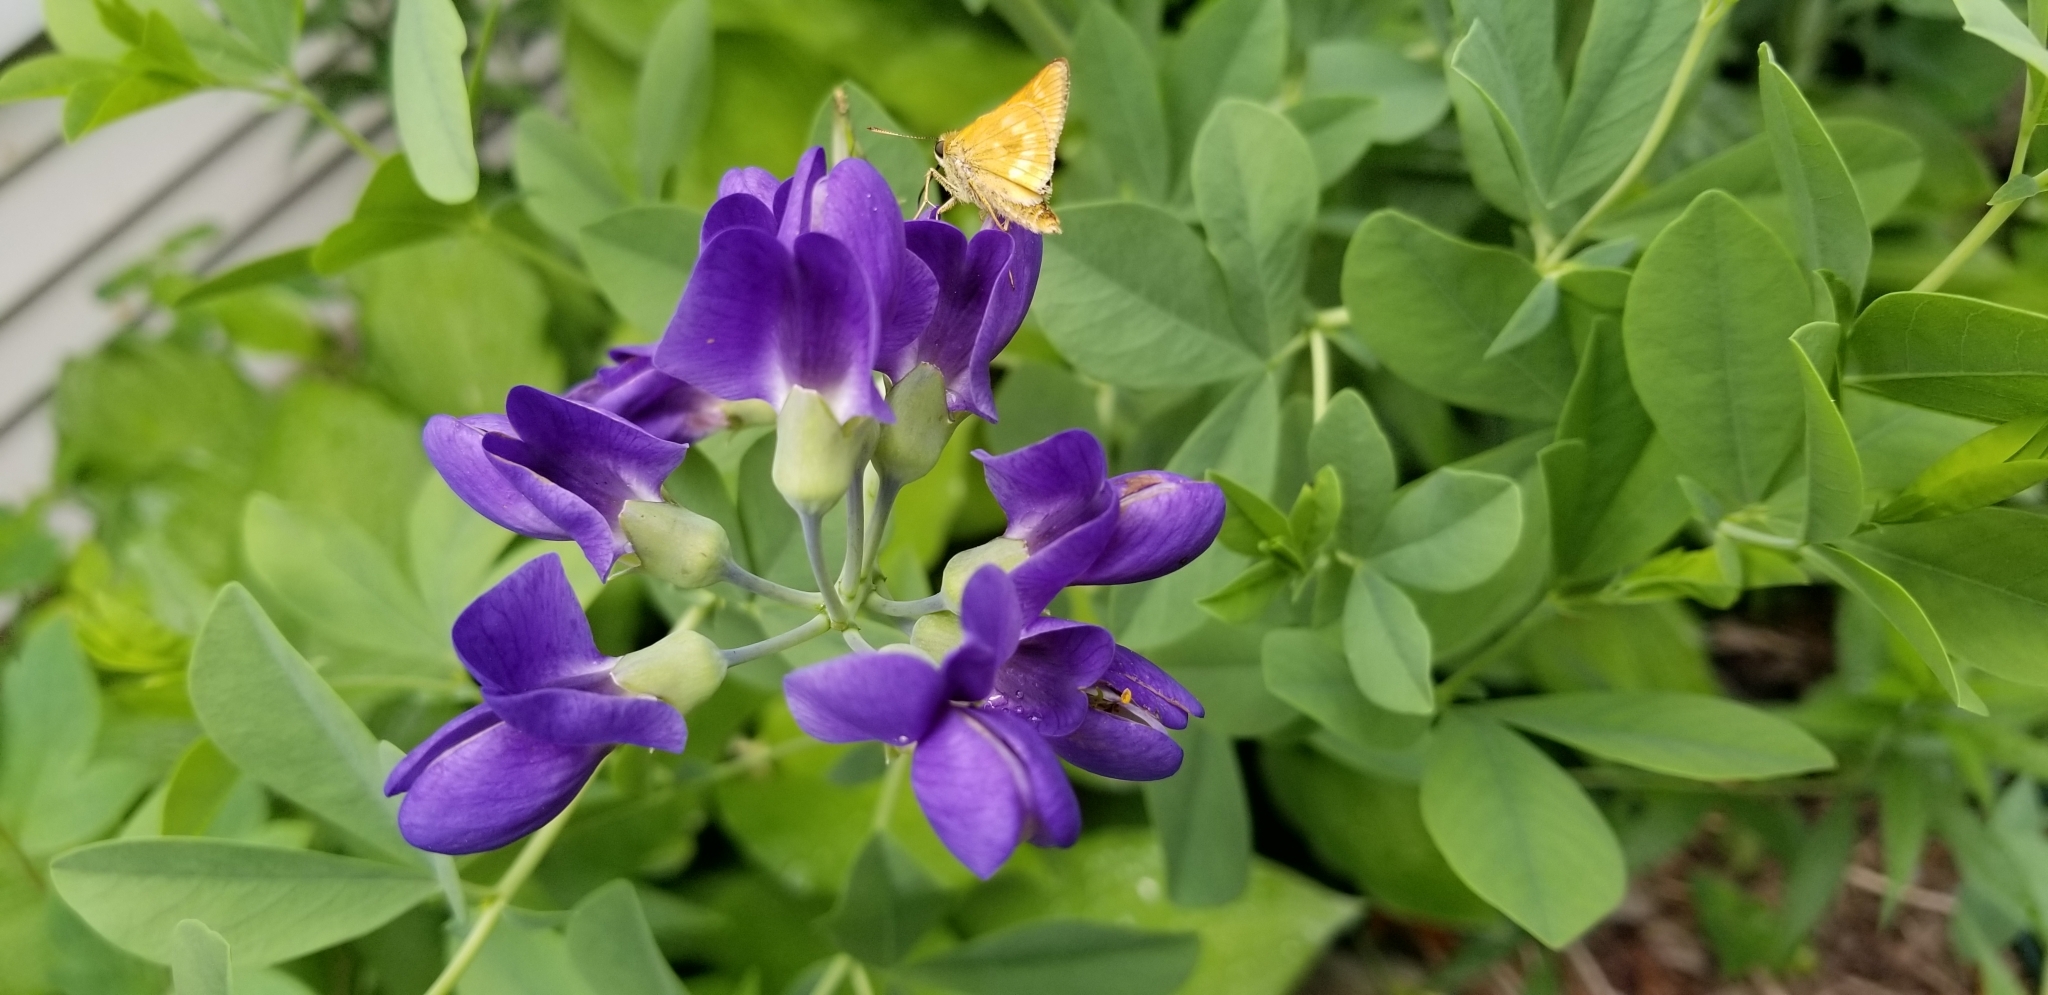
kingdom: Plantae
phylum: Tracheophyta
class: Magnoliopsida
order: Fabales
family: Fabaceae
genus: Baptisia
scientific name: Baptisia australis
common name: Blue false indigo
